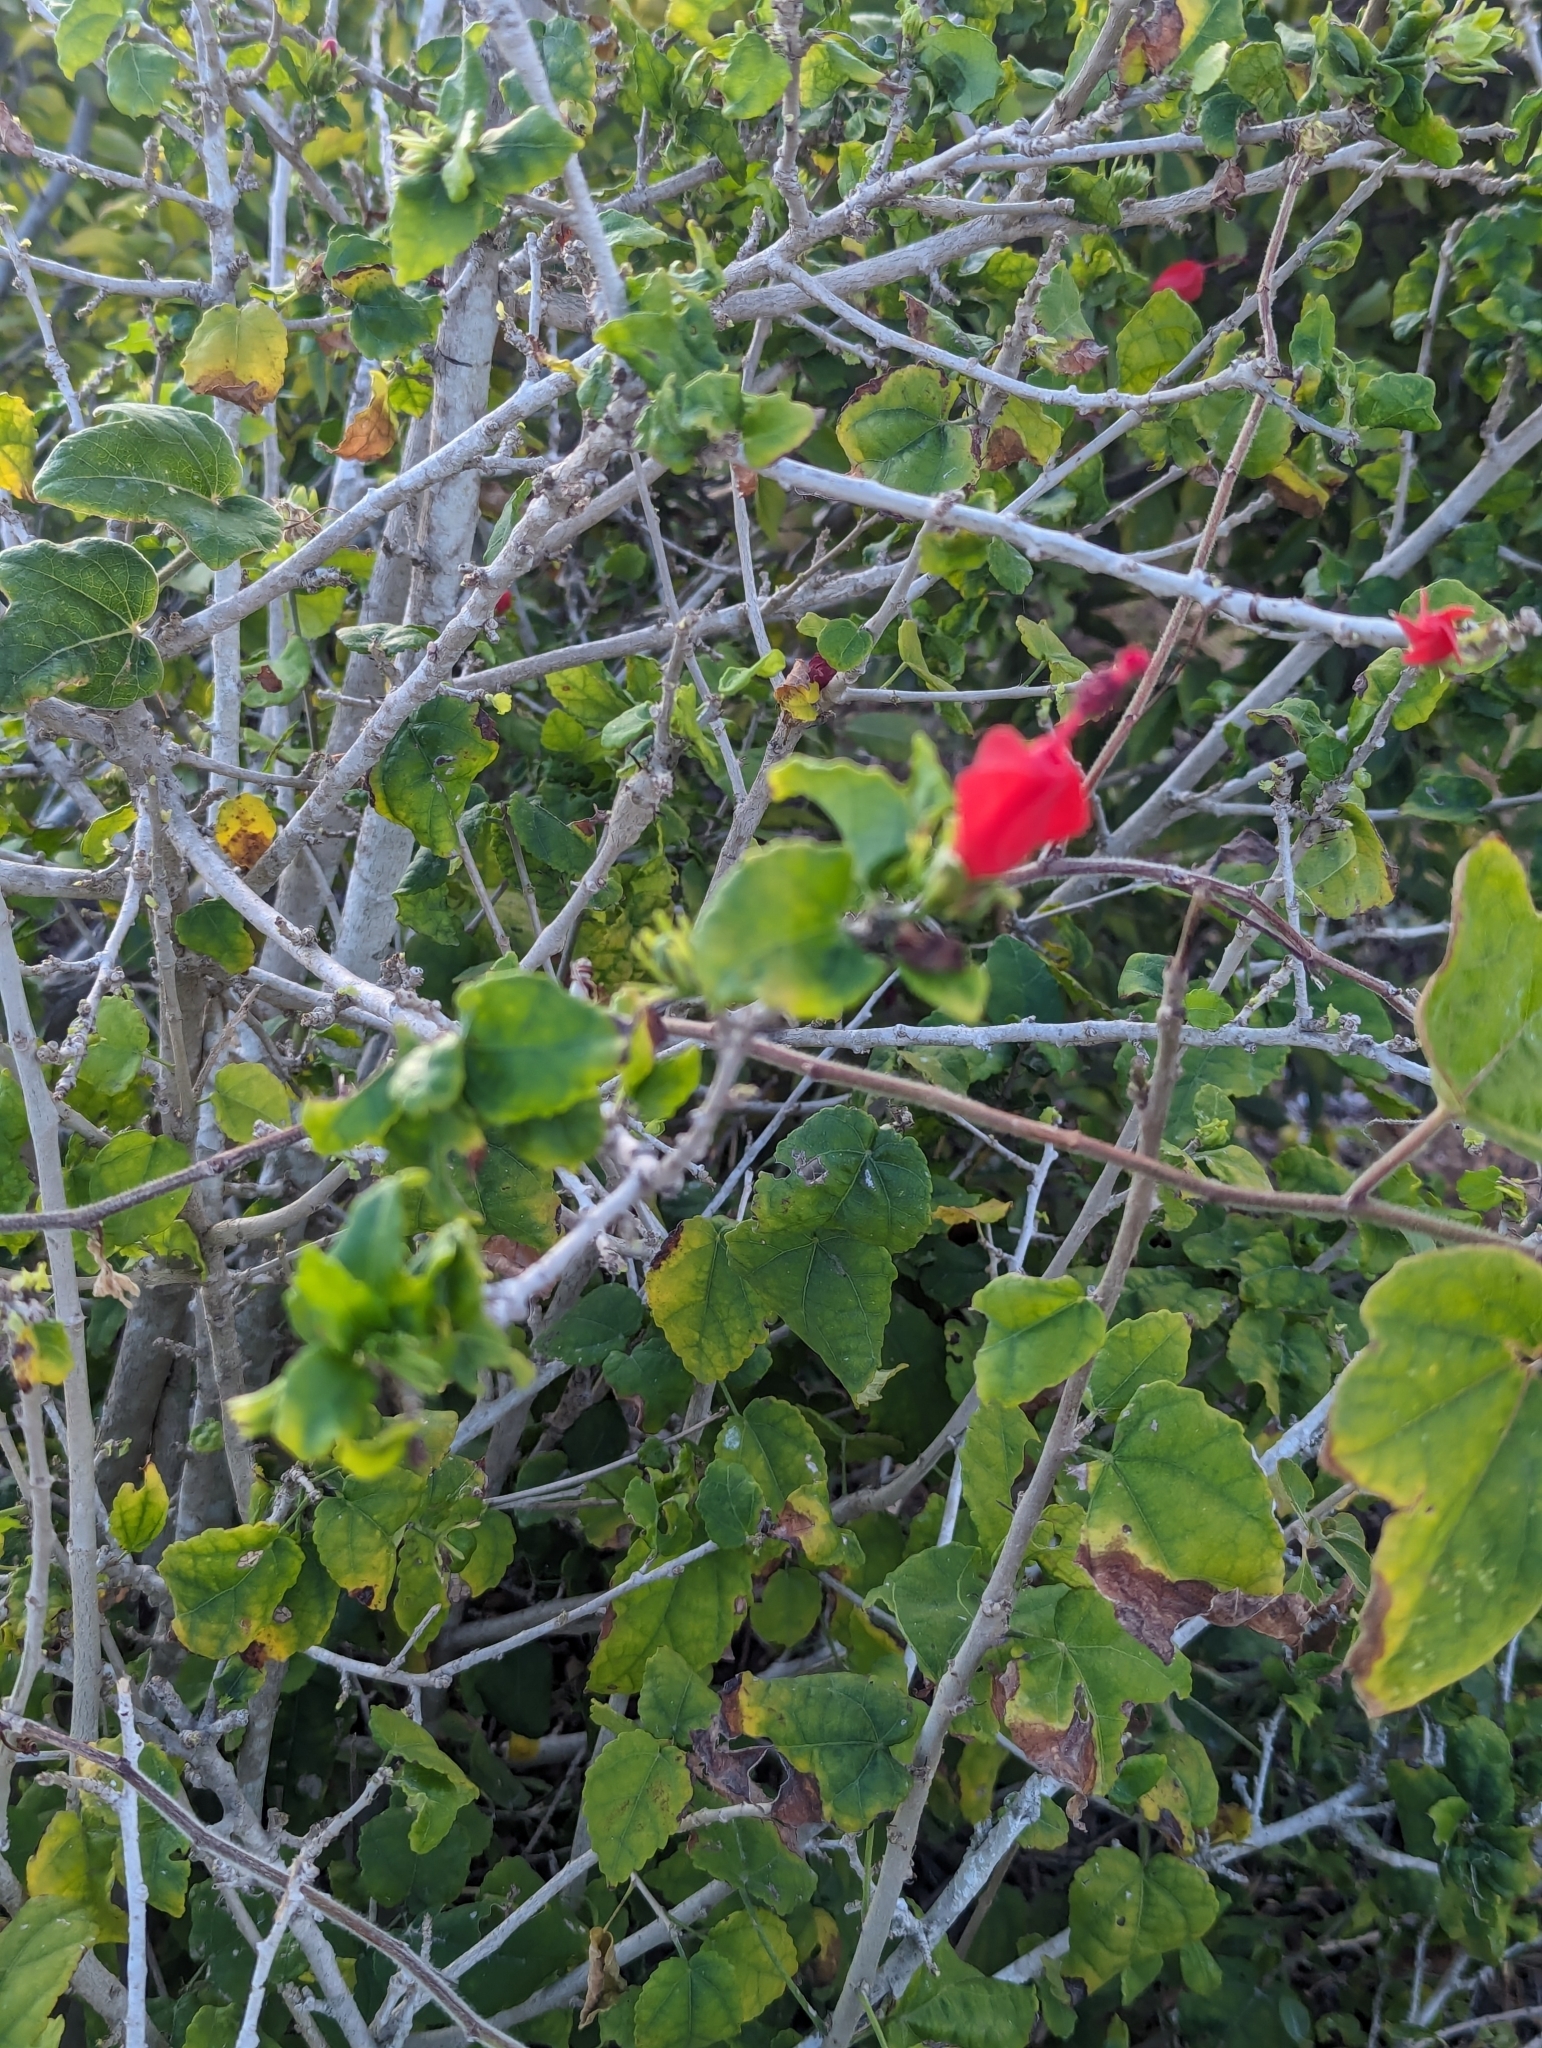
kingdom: Plantae
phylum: Tracheophyta
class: Magnoliopsida
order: Malvales
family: Malvaceae
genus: Malvaviscus
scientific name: Malvaviscus arboreus
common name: Wax mallow
